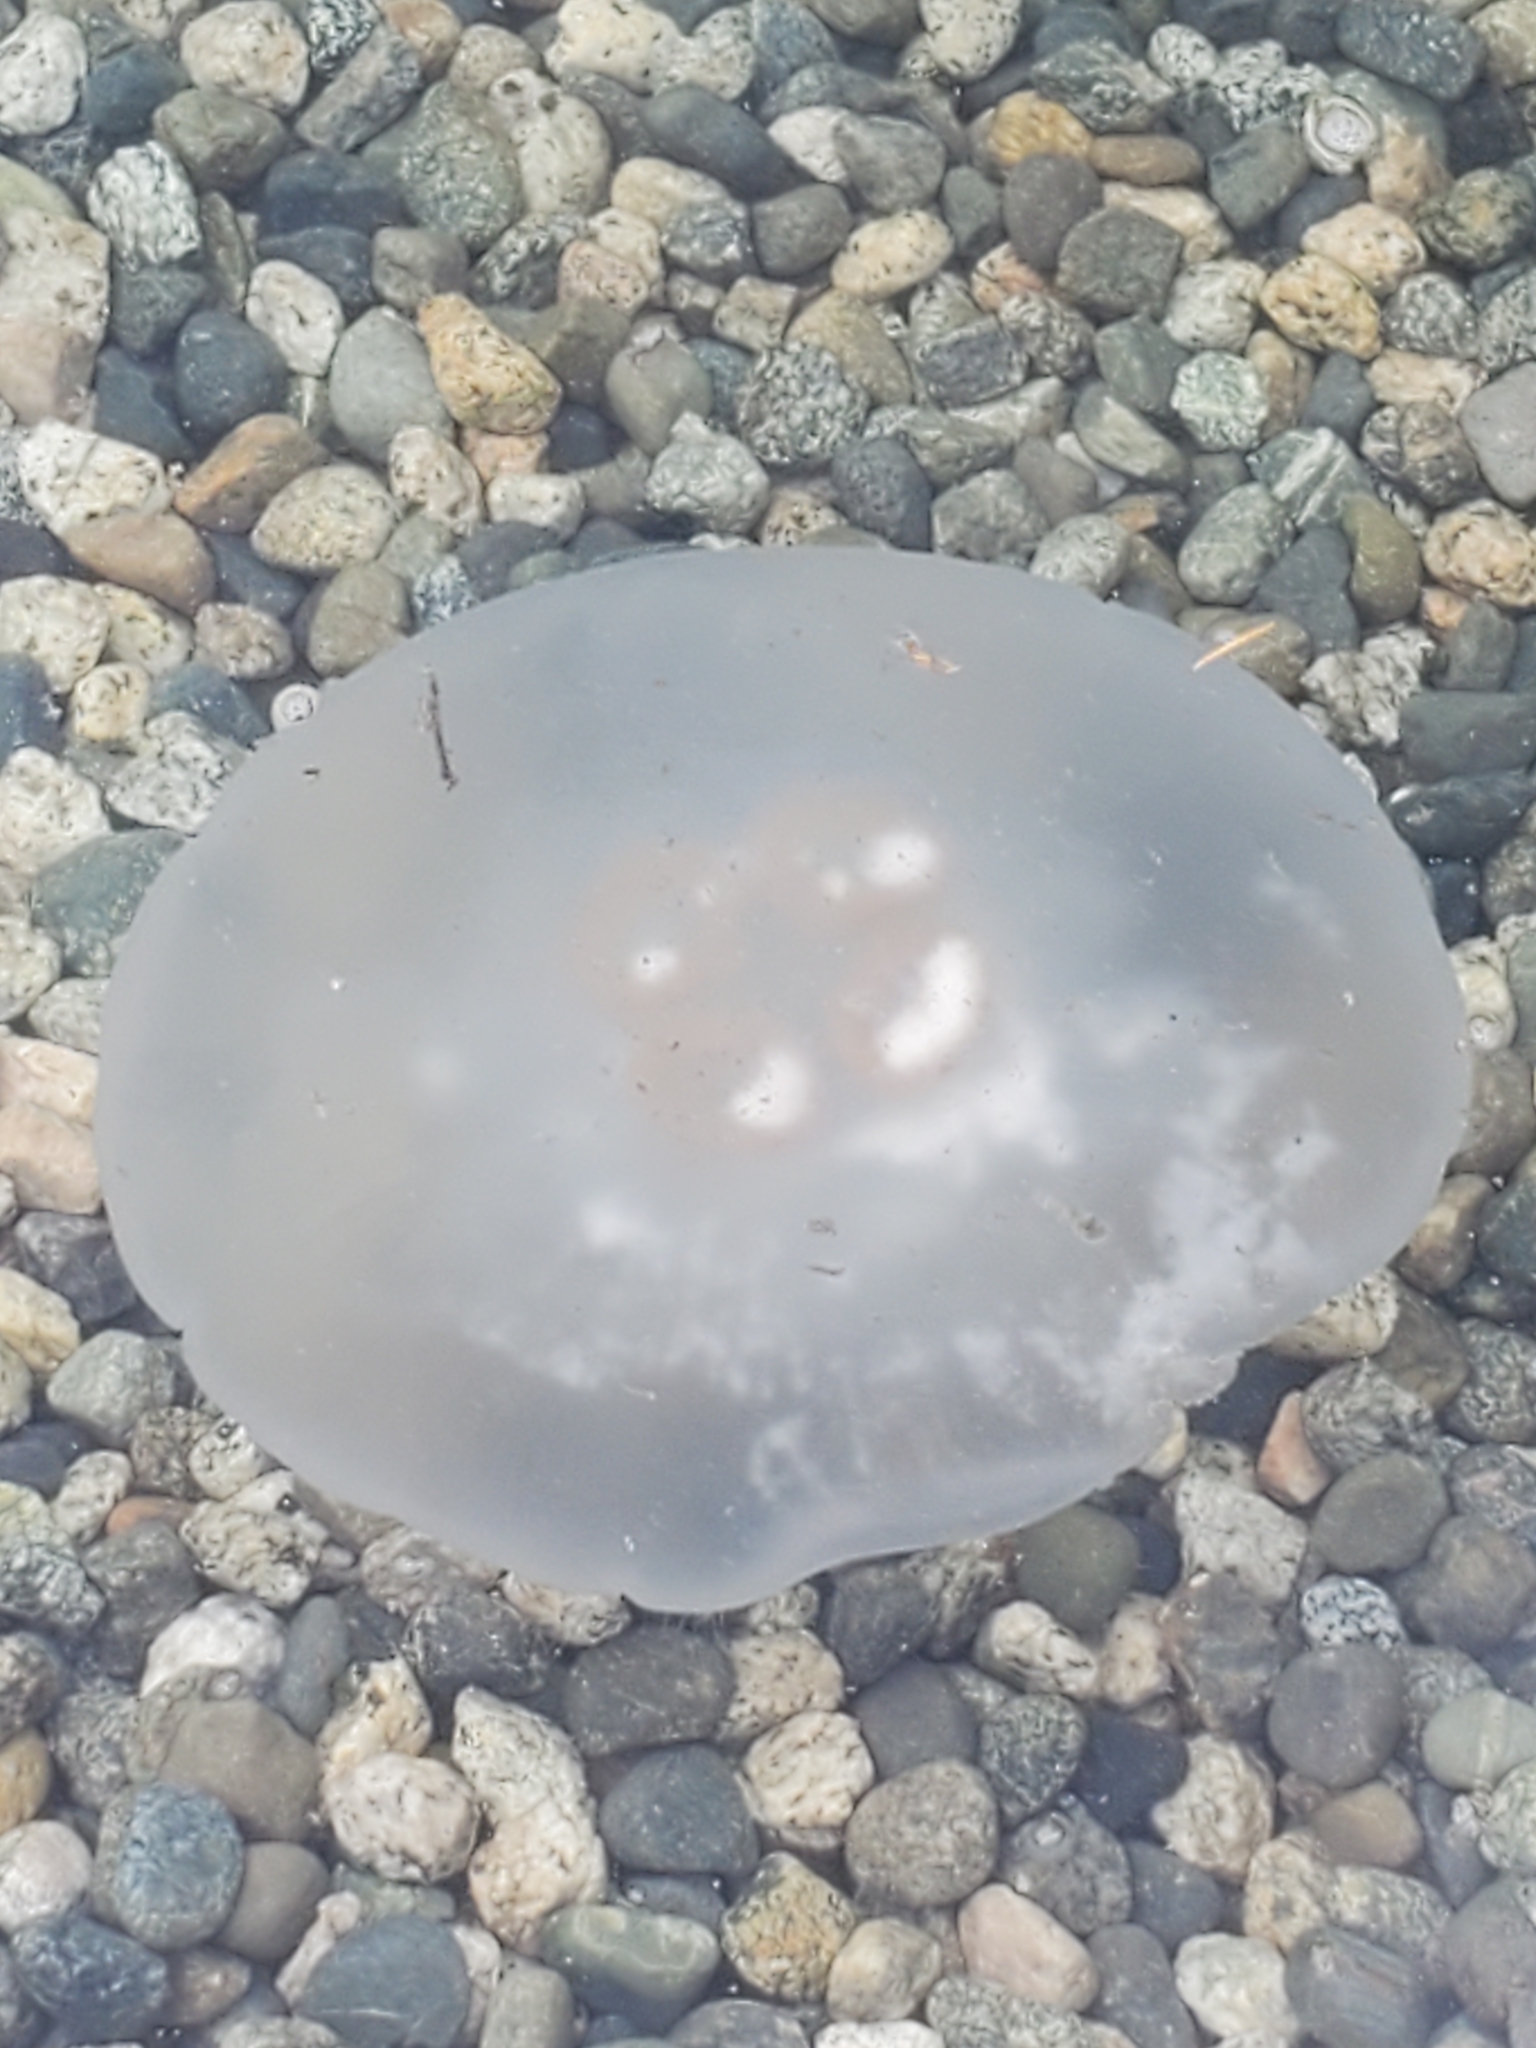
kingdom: Animalia
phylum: Cnidaria
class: Scyphozoa
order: Semaeostomeae
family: Ulmaridae
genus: Aurelia
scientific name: Aurelia labiata
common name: Pacific moon jelly
